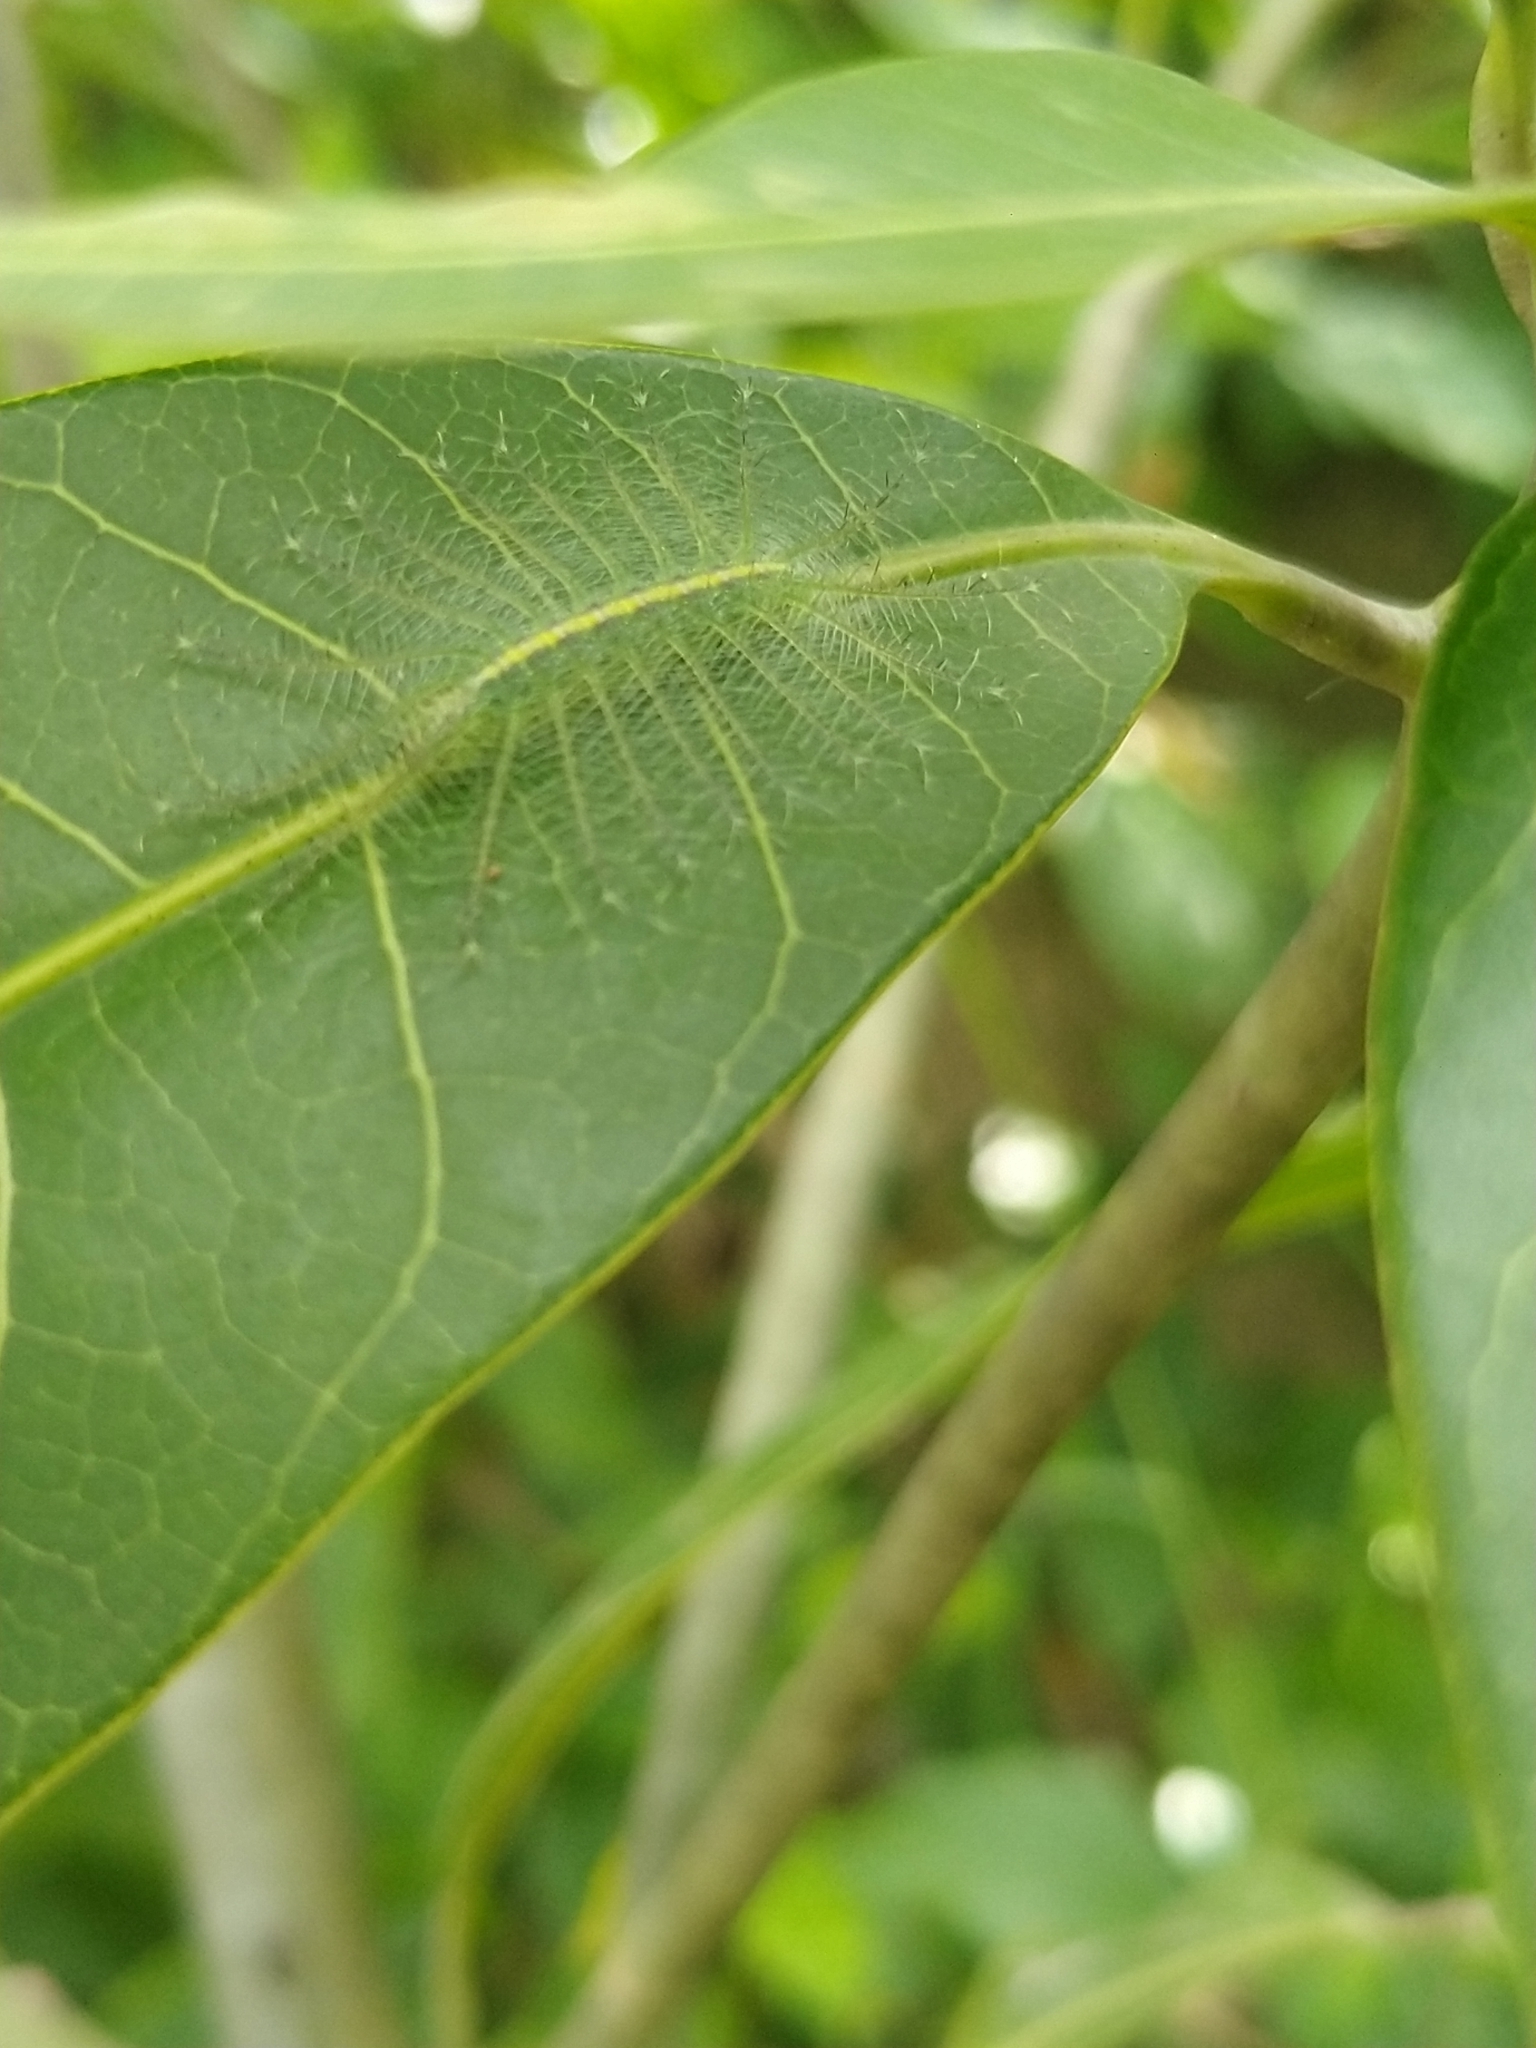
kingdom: Animalia
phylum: Arthropoda
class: Insecta
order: Lepidoptera
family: Nymphalidae
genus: Euthalia
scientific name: Euthalia aconthea
